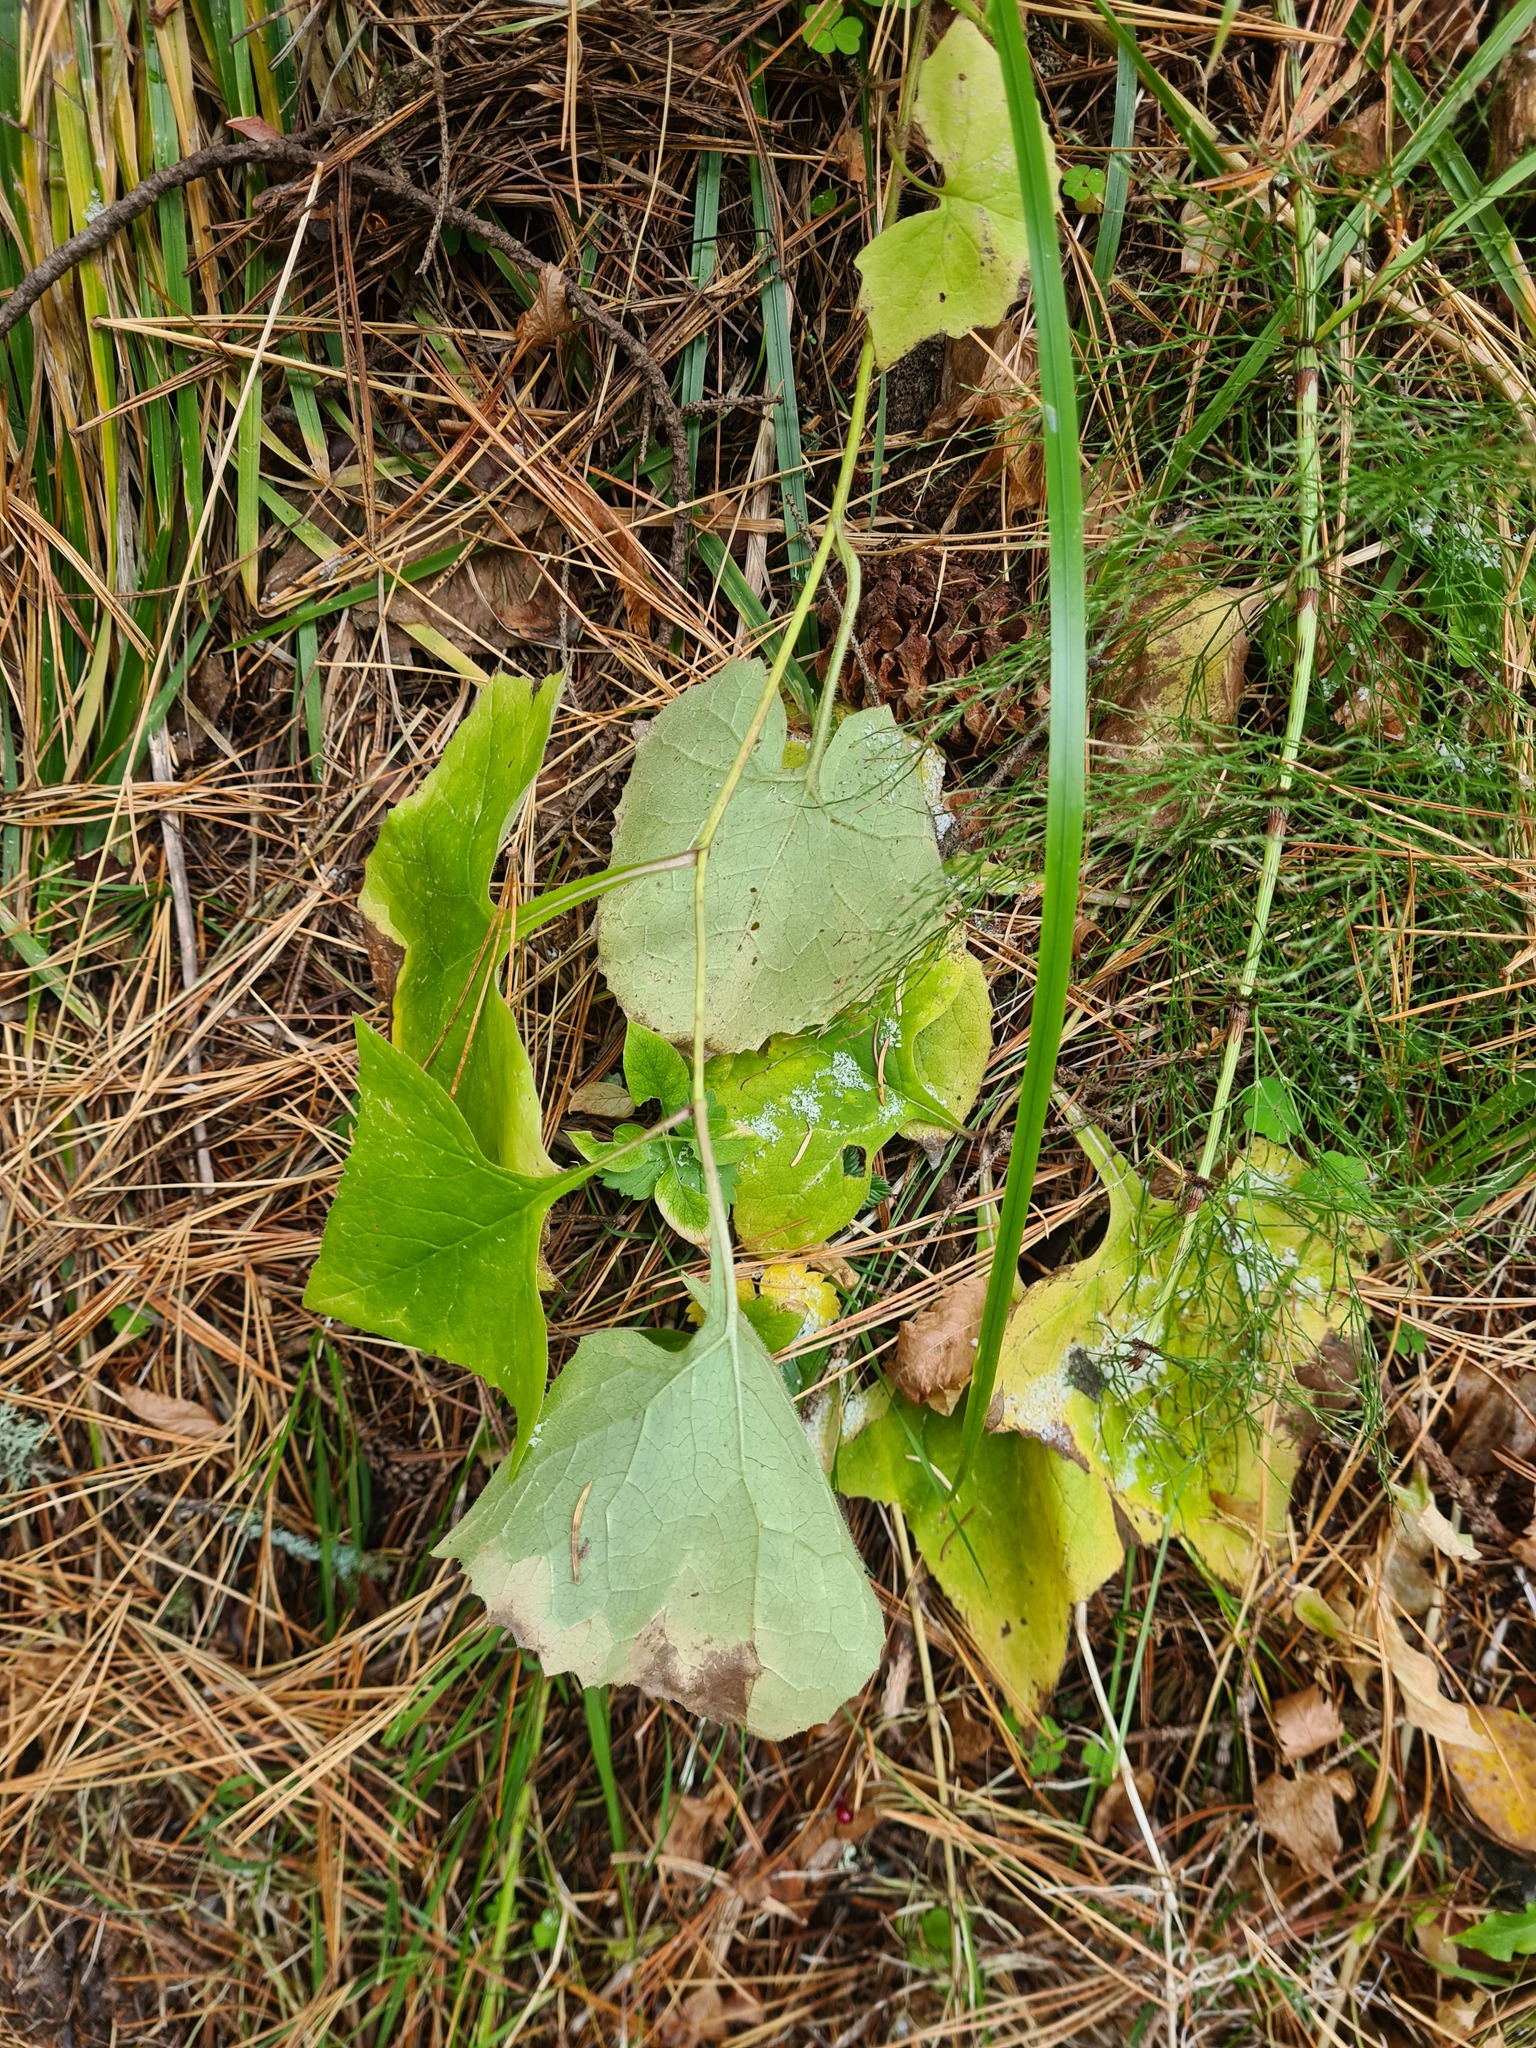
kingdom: Plantae
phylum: Tracheophyta
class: Magnoliopsida
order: Asterales
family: Asteraceae
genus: Parasenecio
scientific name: Parasenecio hastatus
